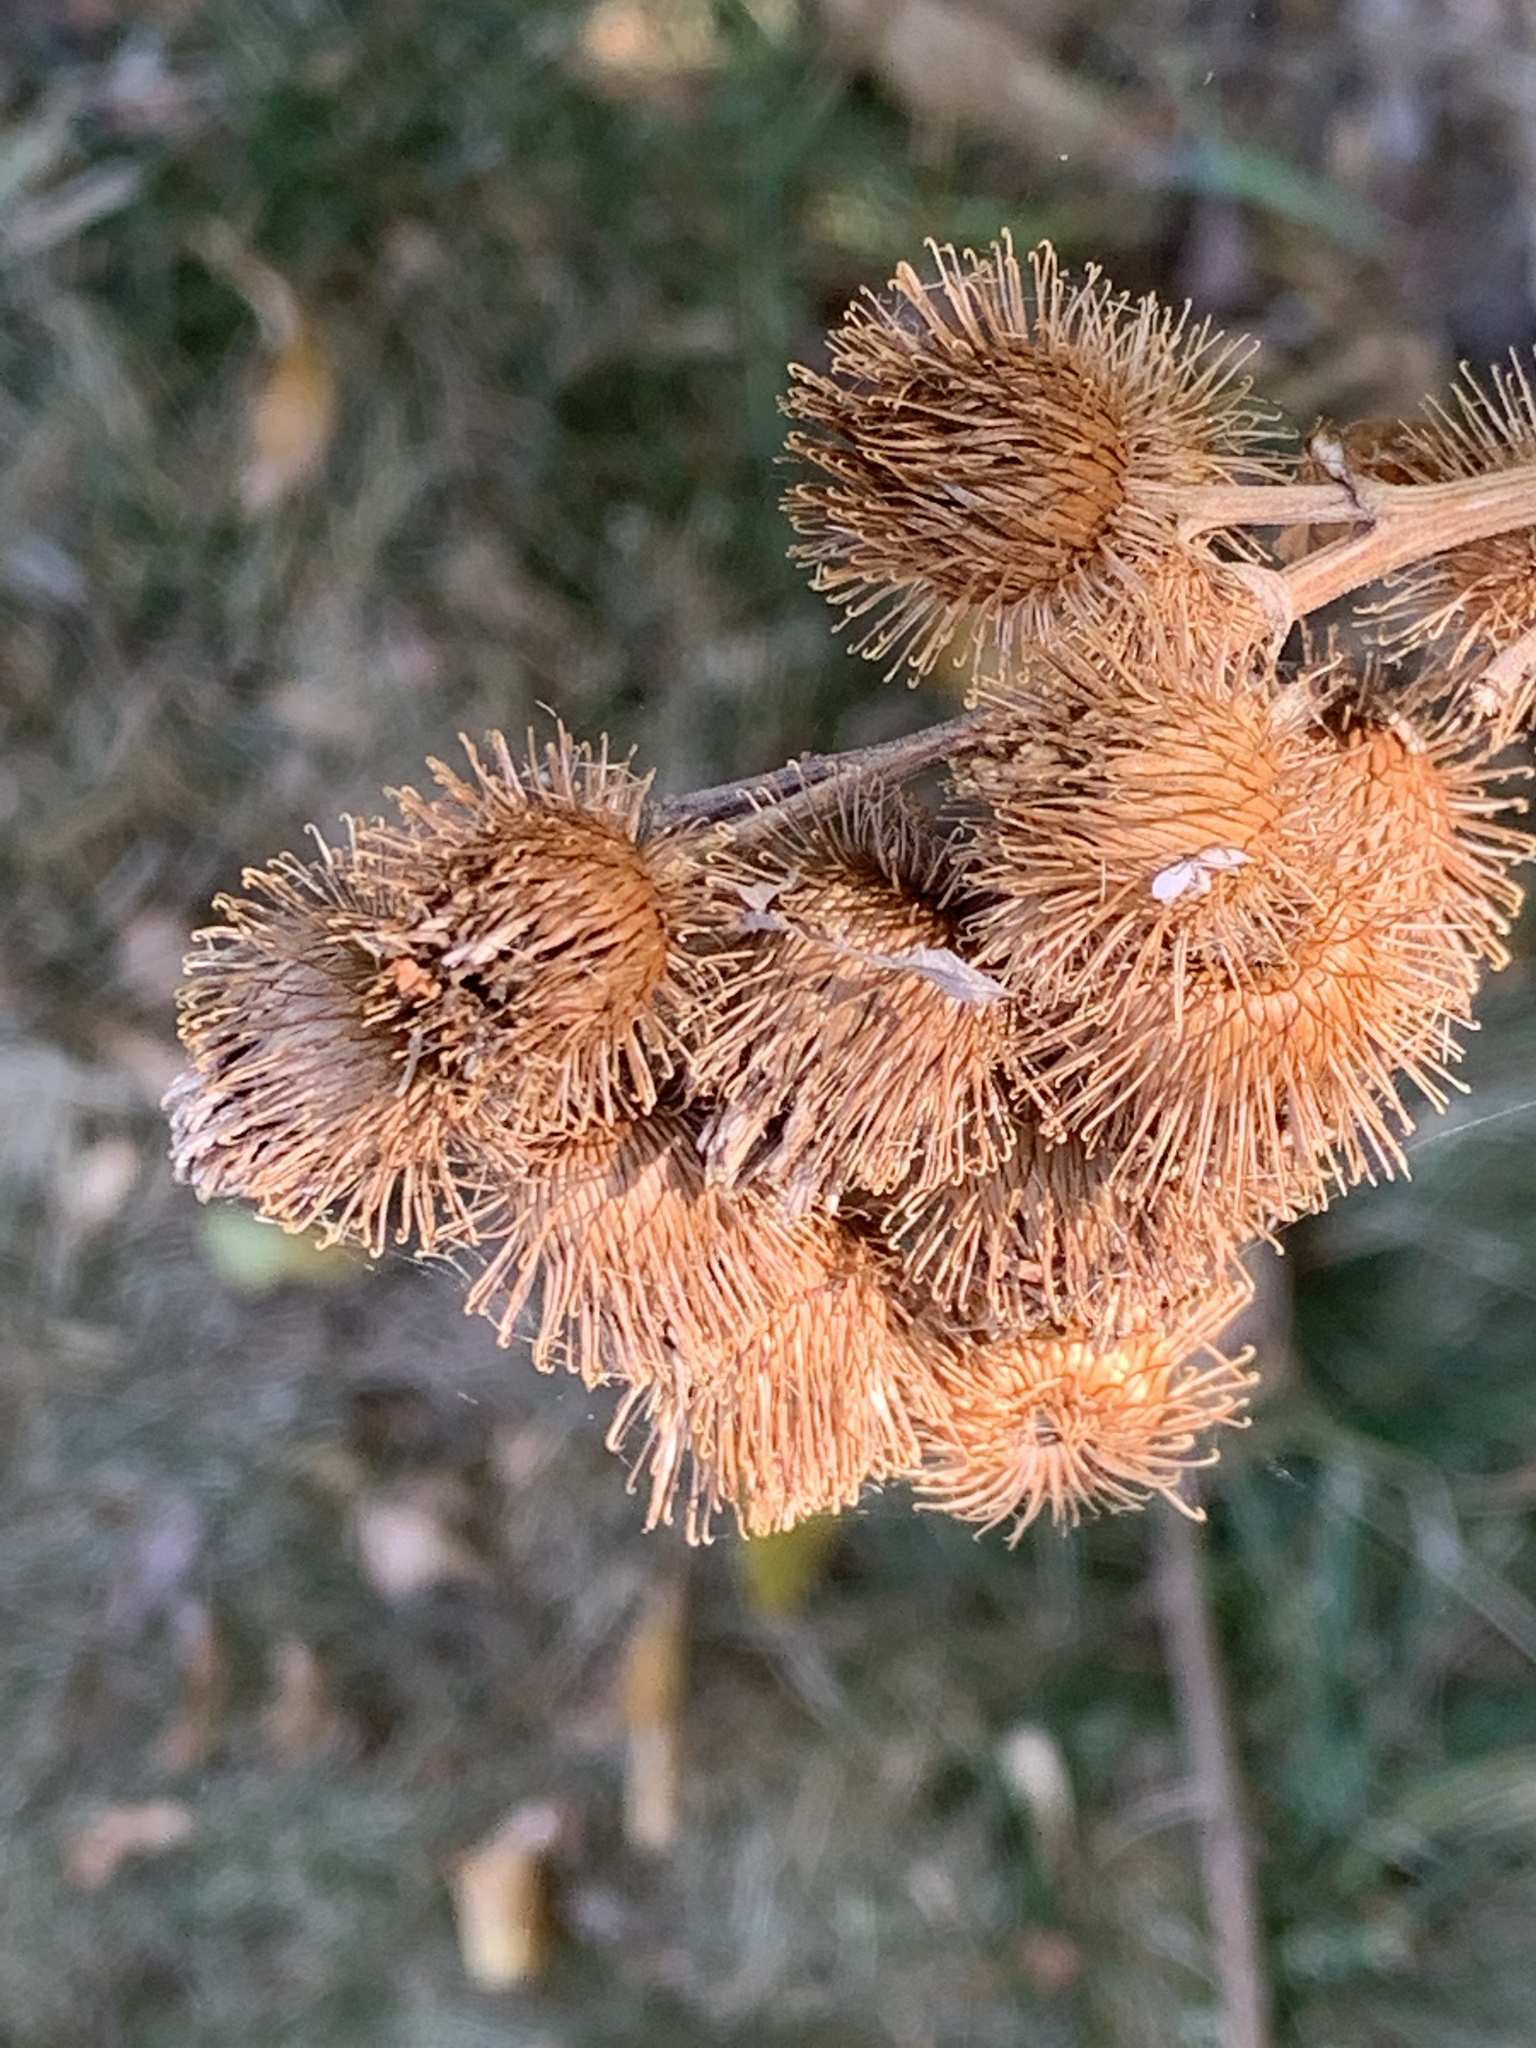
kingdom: Plantae
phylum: Tracheophyta
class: Magnoliopsida
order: Asterales
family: Asteraceae
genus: Arctium
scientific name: Arctium minus
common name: Lesser burdock
